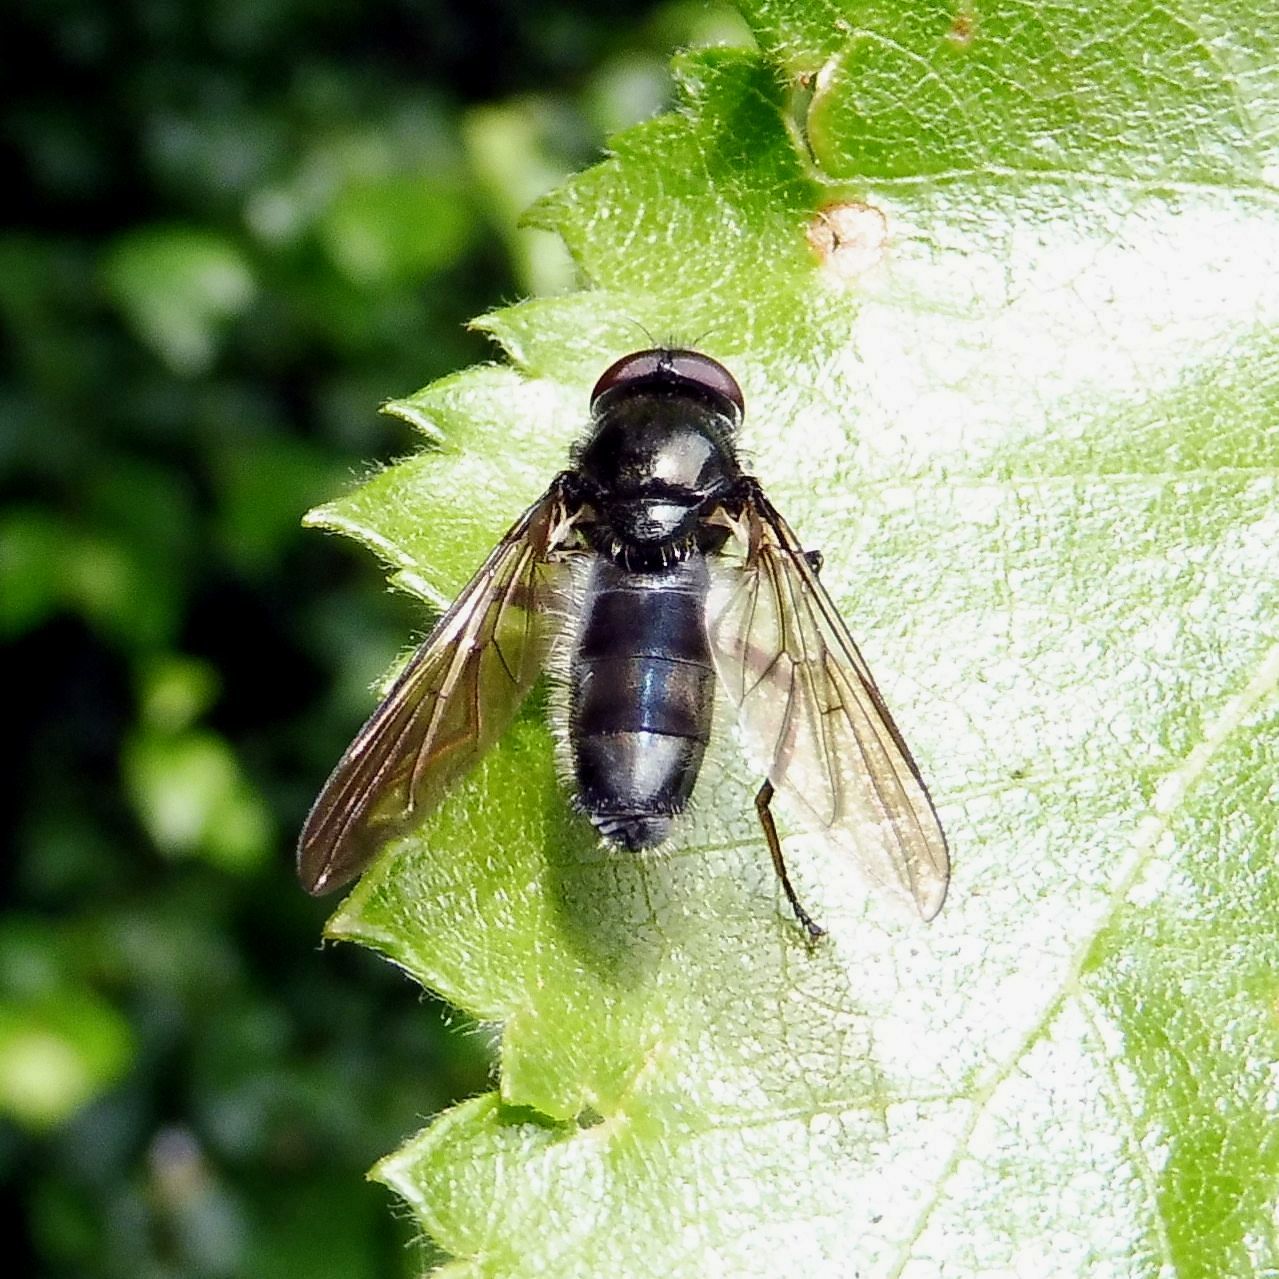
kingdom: Animalia
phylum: Arthropoda
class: Insecta
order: Diptera
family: Syrphidae
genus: Cheilosia
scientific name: Cheilosia variabilis
